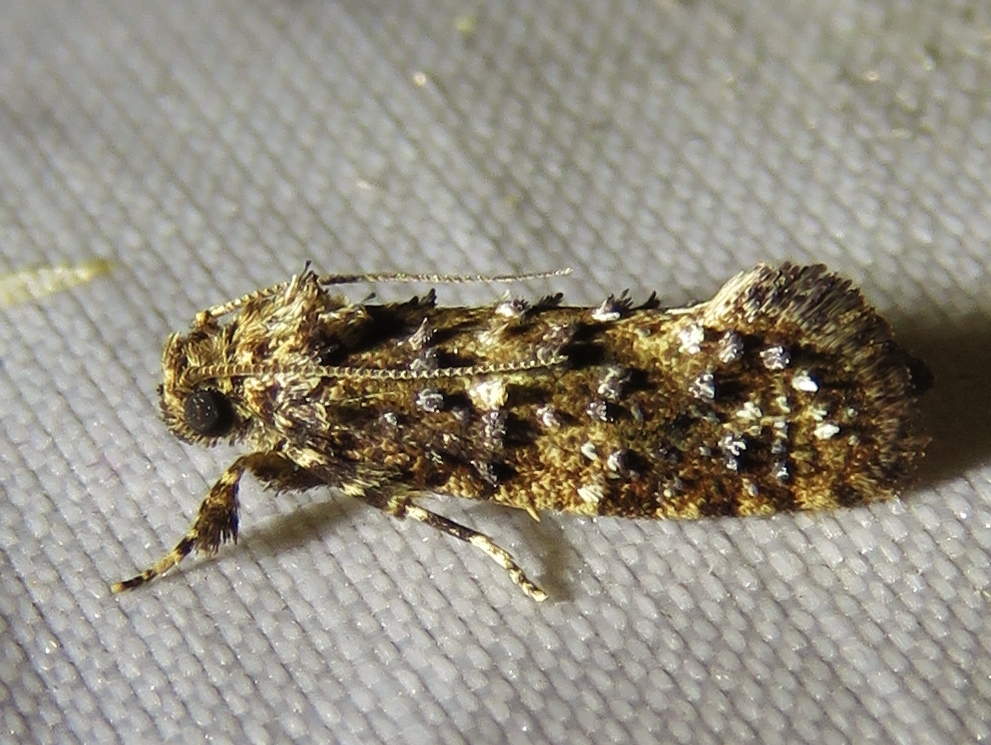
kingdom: Animalia
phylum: Arthropoda
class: Insecta
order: Lepidoptera
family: Tineidae
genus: Acrolophus
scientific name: Acrolophus cressoni
